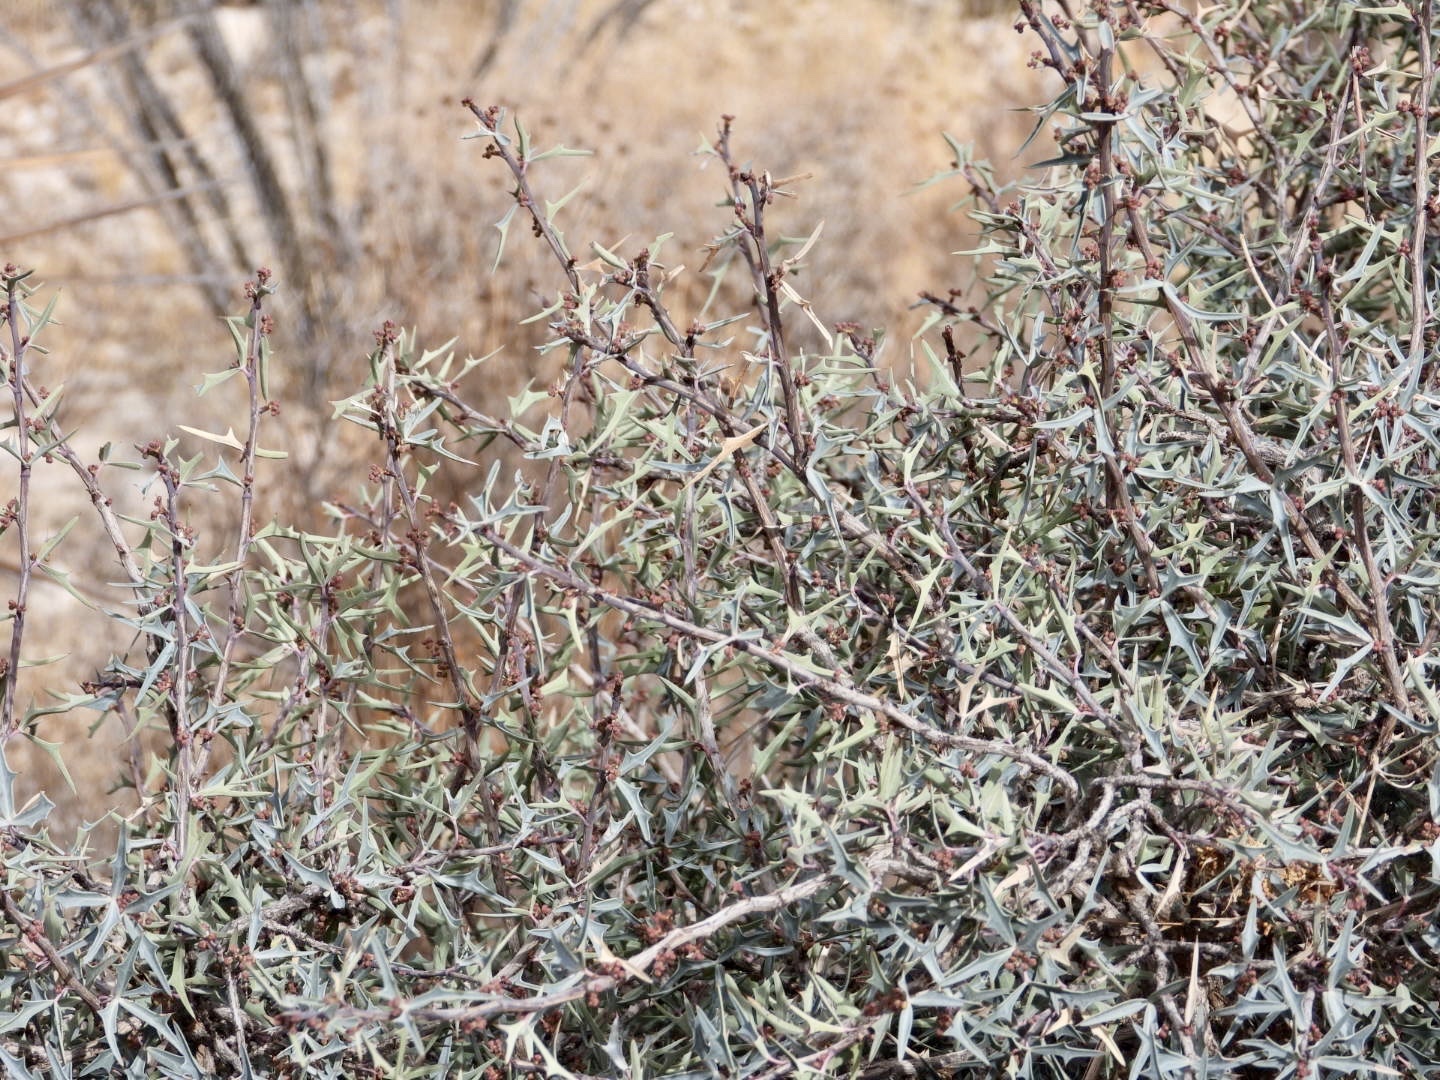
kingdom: Plantae
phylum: Tracheophyta
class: Magnoliopsida
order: Ranunculales
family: Berberidaceae
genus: Alloberberis
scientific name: Alloberberis trifoliolata
